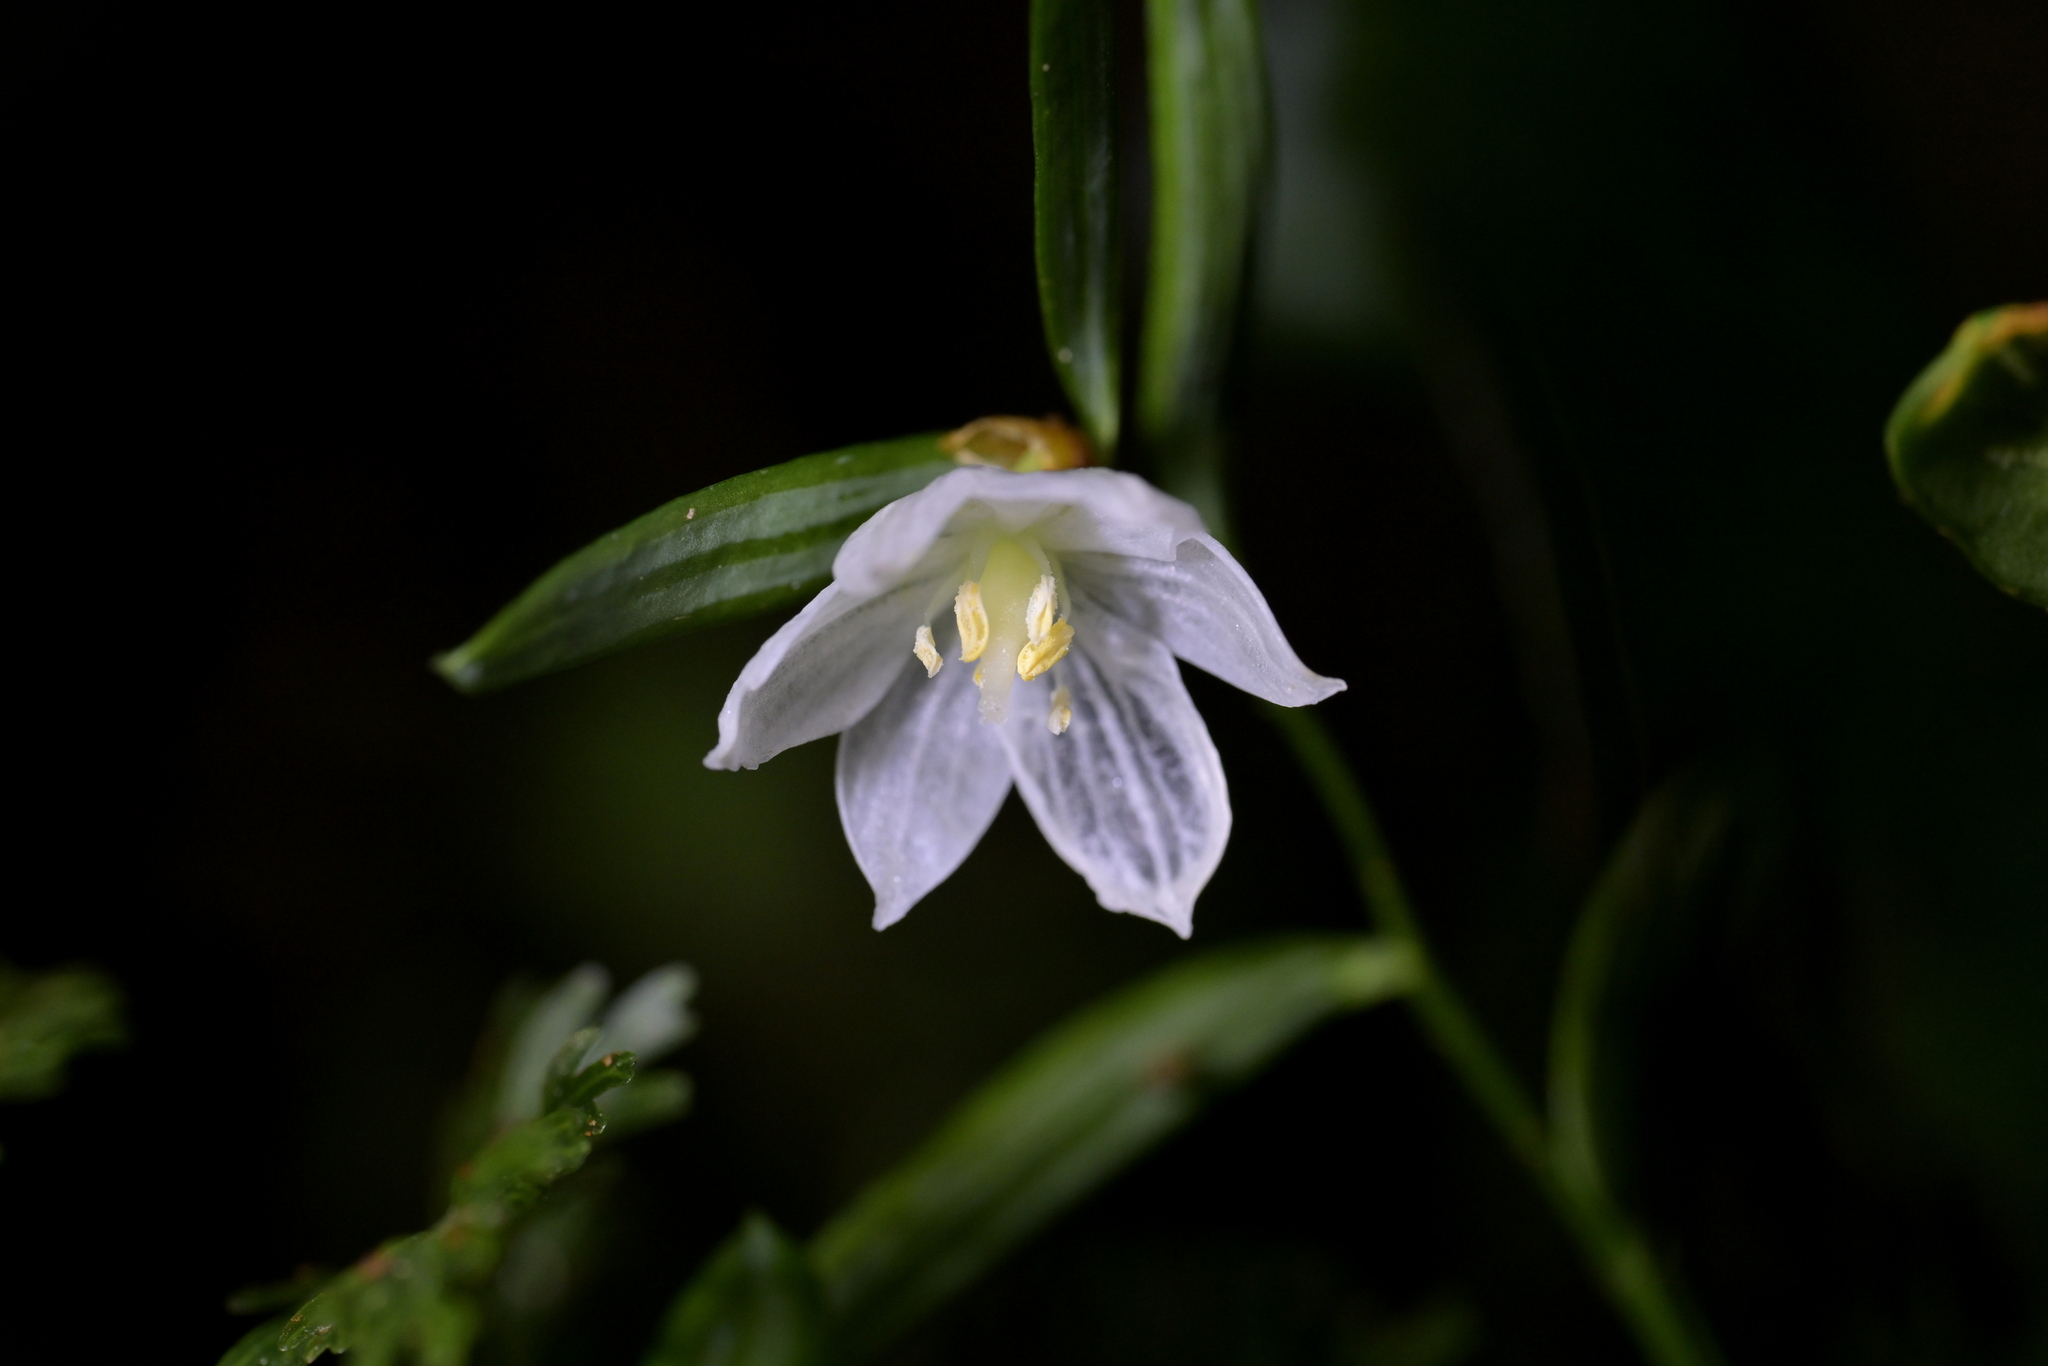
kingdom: Plantae
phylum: Tracheophyta
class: Liliopsida
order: Liliales
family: Alstroemeriaceae
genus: Luzuriaga
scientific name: Luzuriaga parviflora
